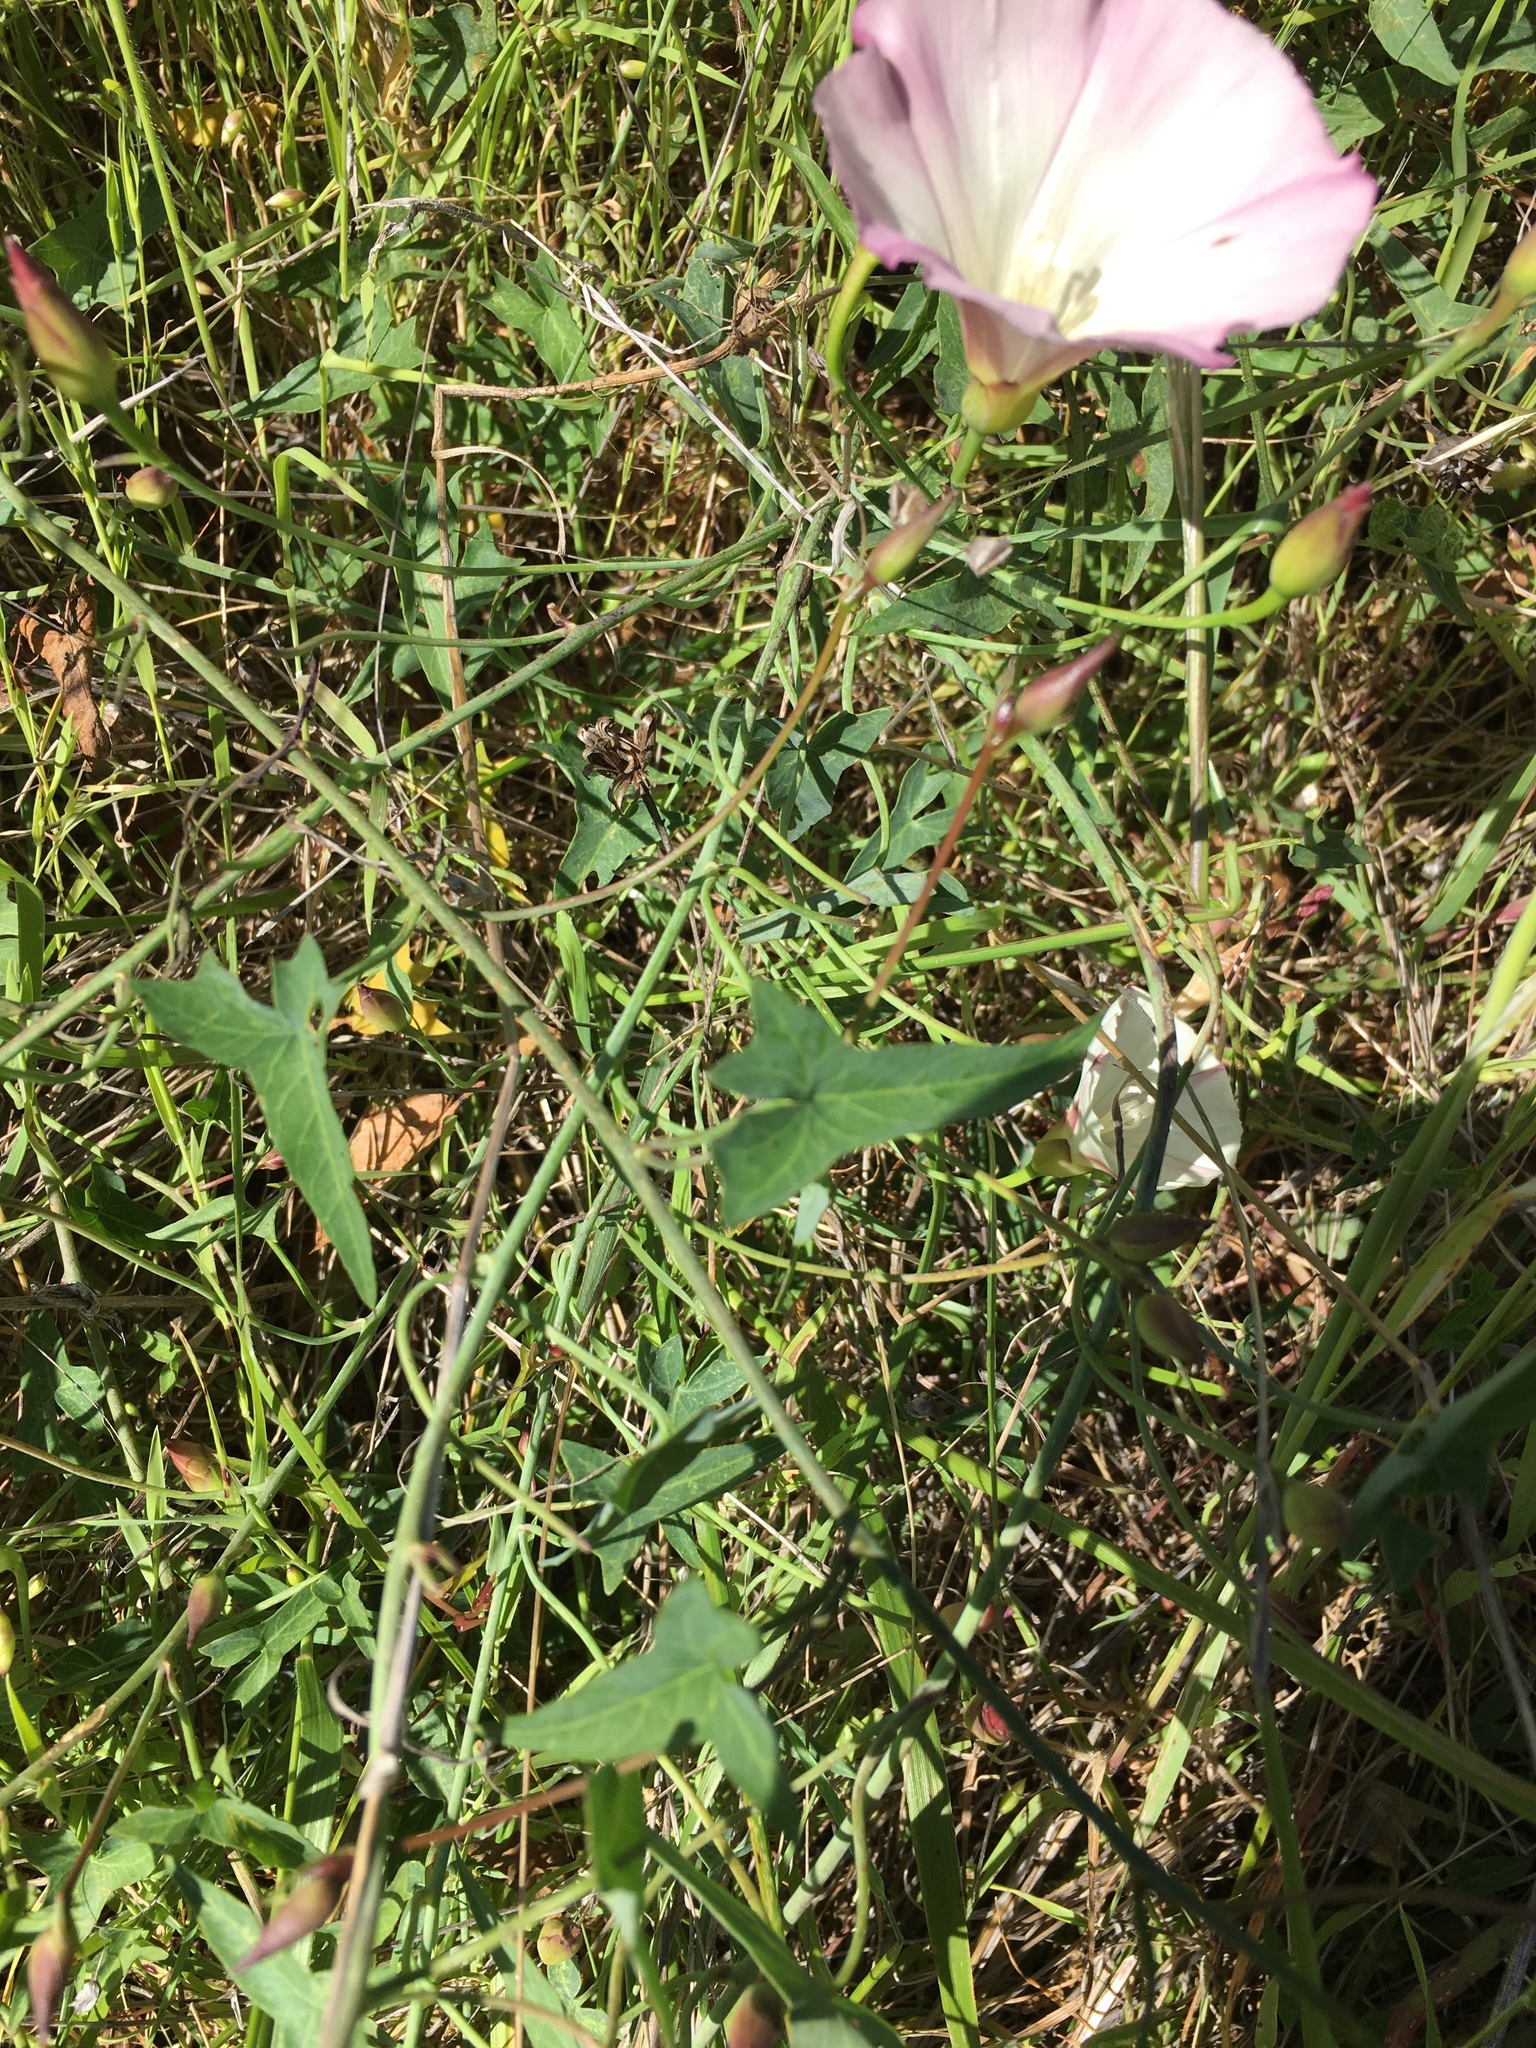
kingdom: Plantae
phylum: Tracheophyta
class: Magnoliopsida
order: Solanales
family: Convolvulaceae
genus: Calystegia
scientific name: Calystegia purpurata
